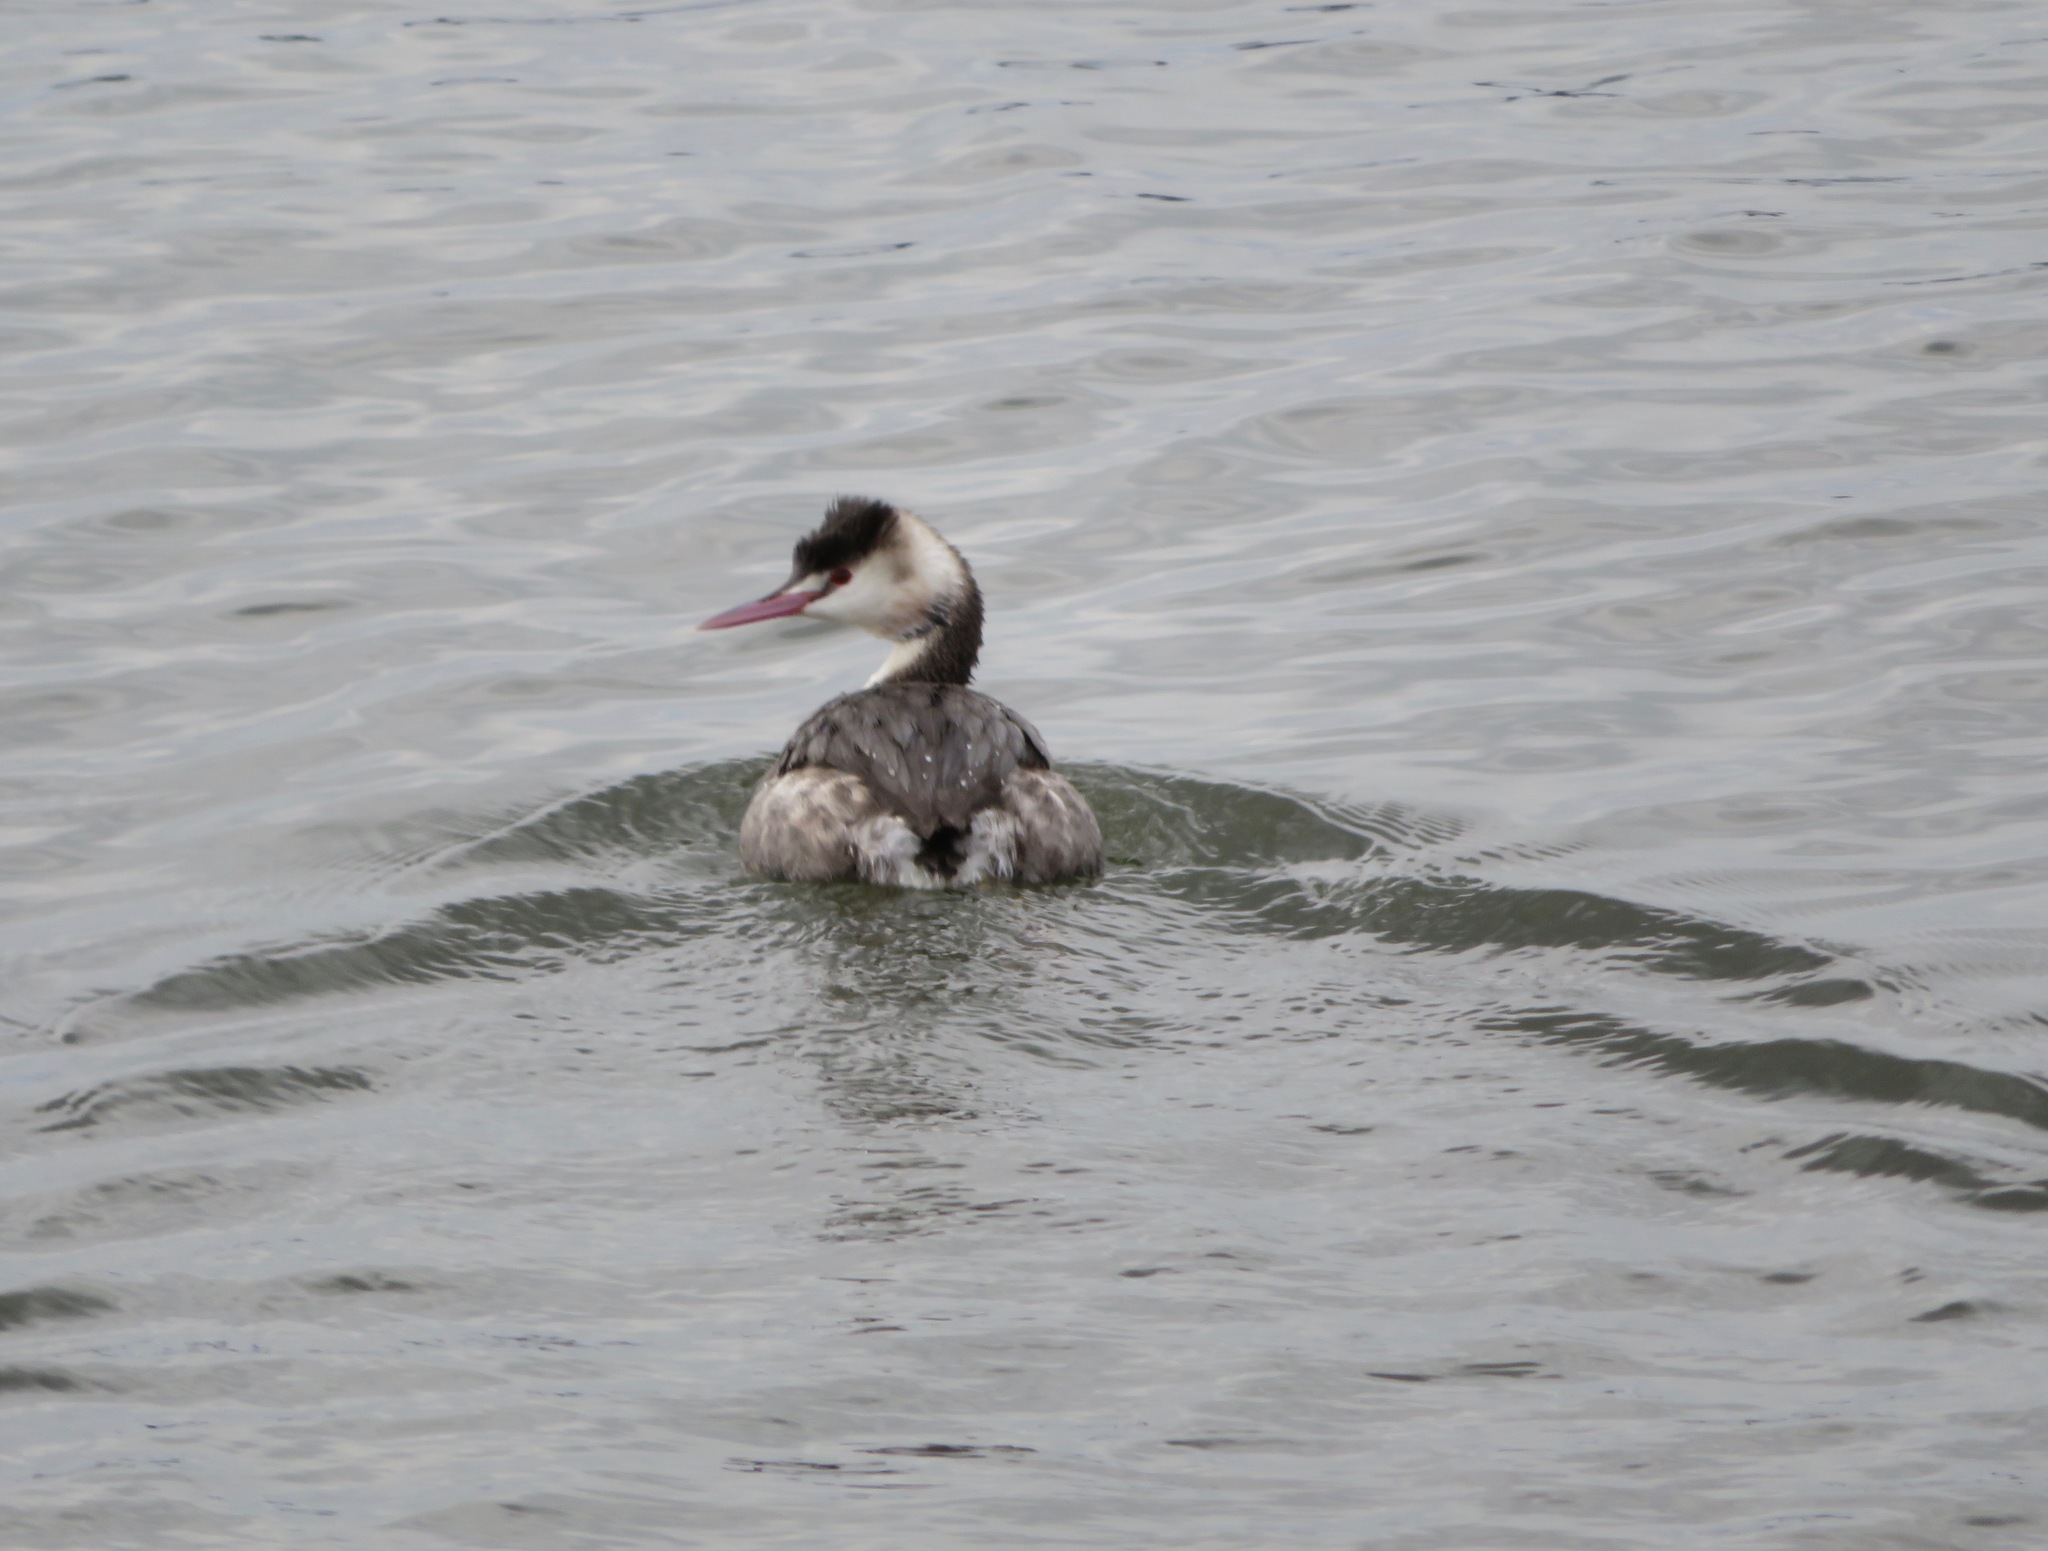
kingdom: Animalia
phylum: Chordata
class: Aves
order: Podicipediformes
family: Podicipedidae
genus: Podiceps
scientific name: Podiceps cristatus
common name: Great crested grebe
